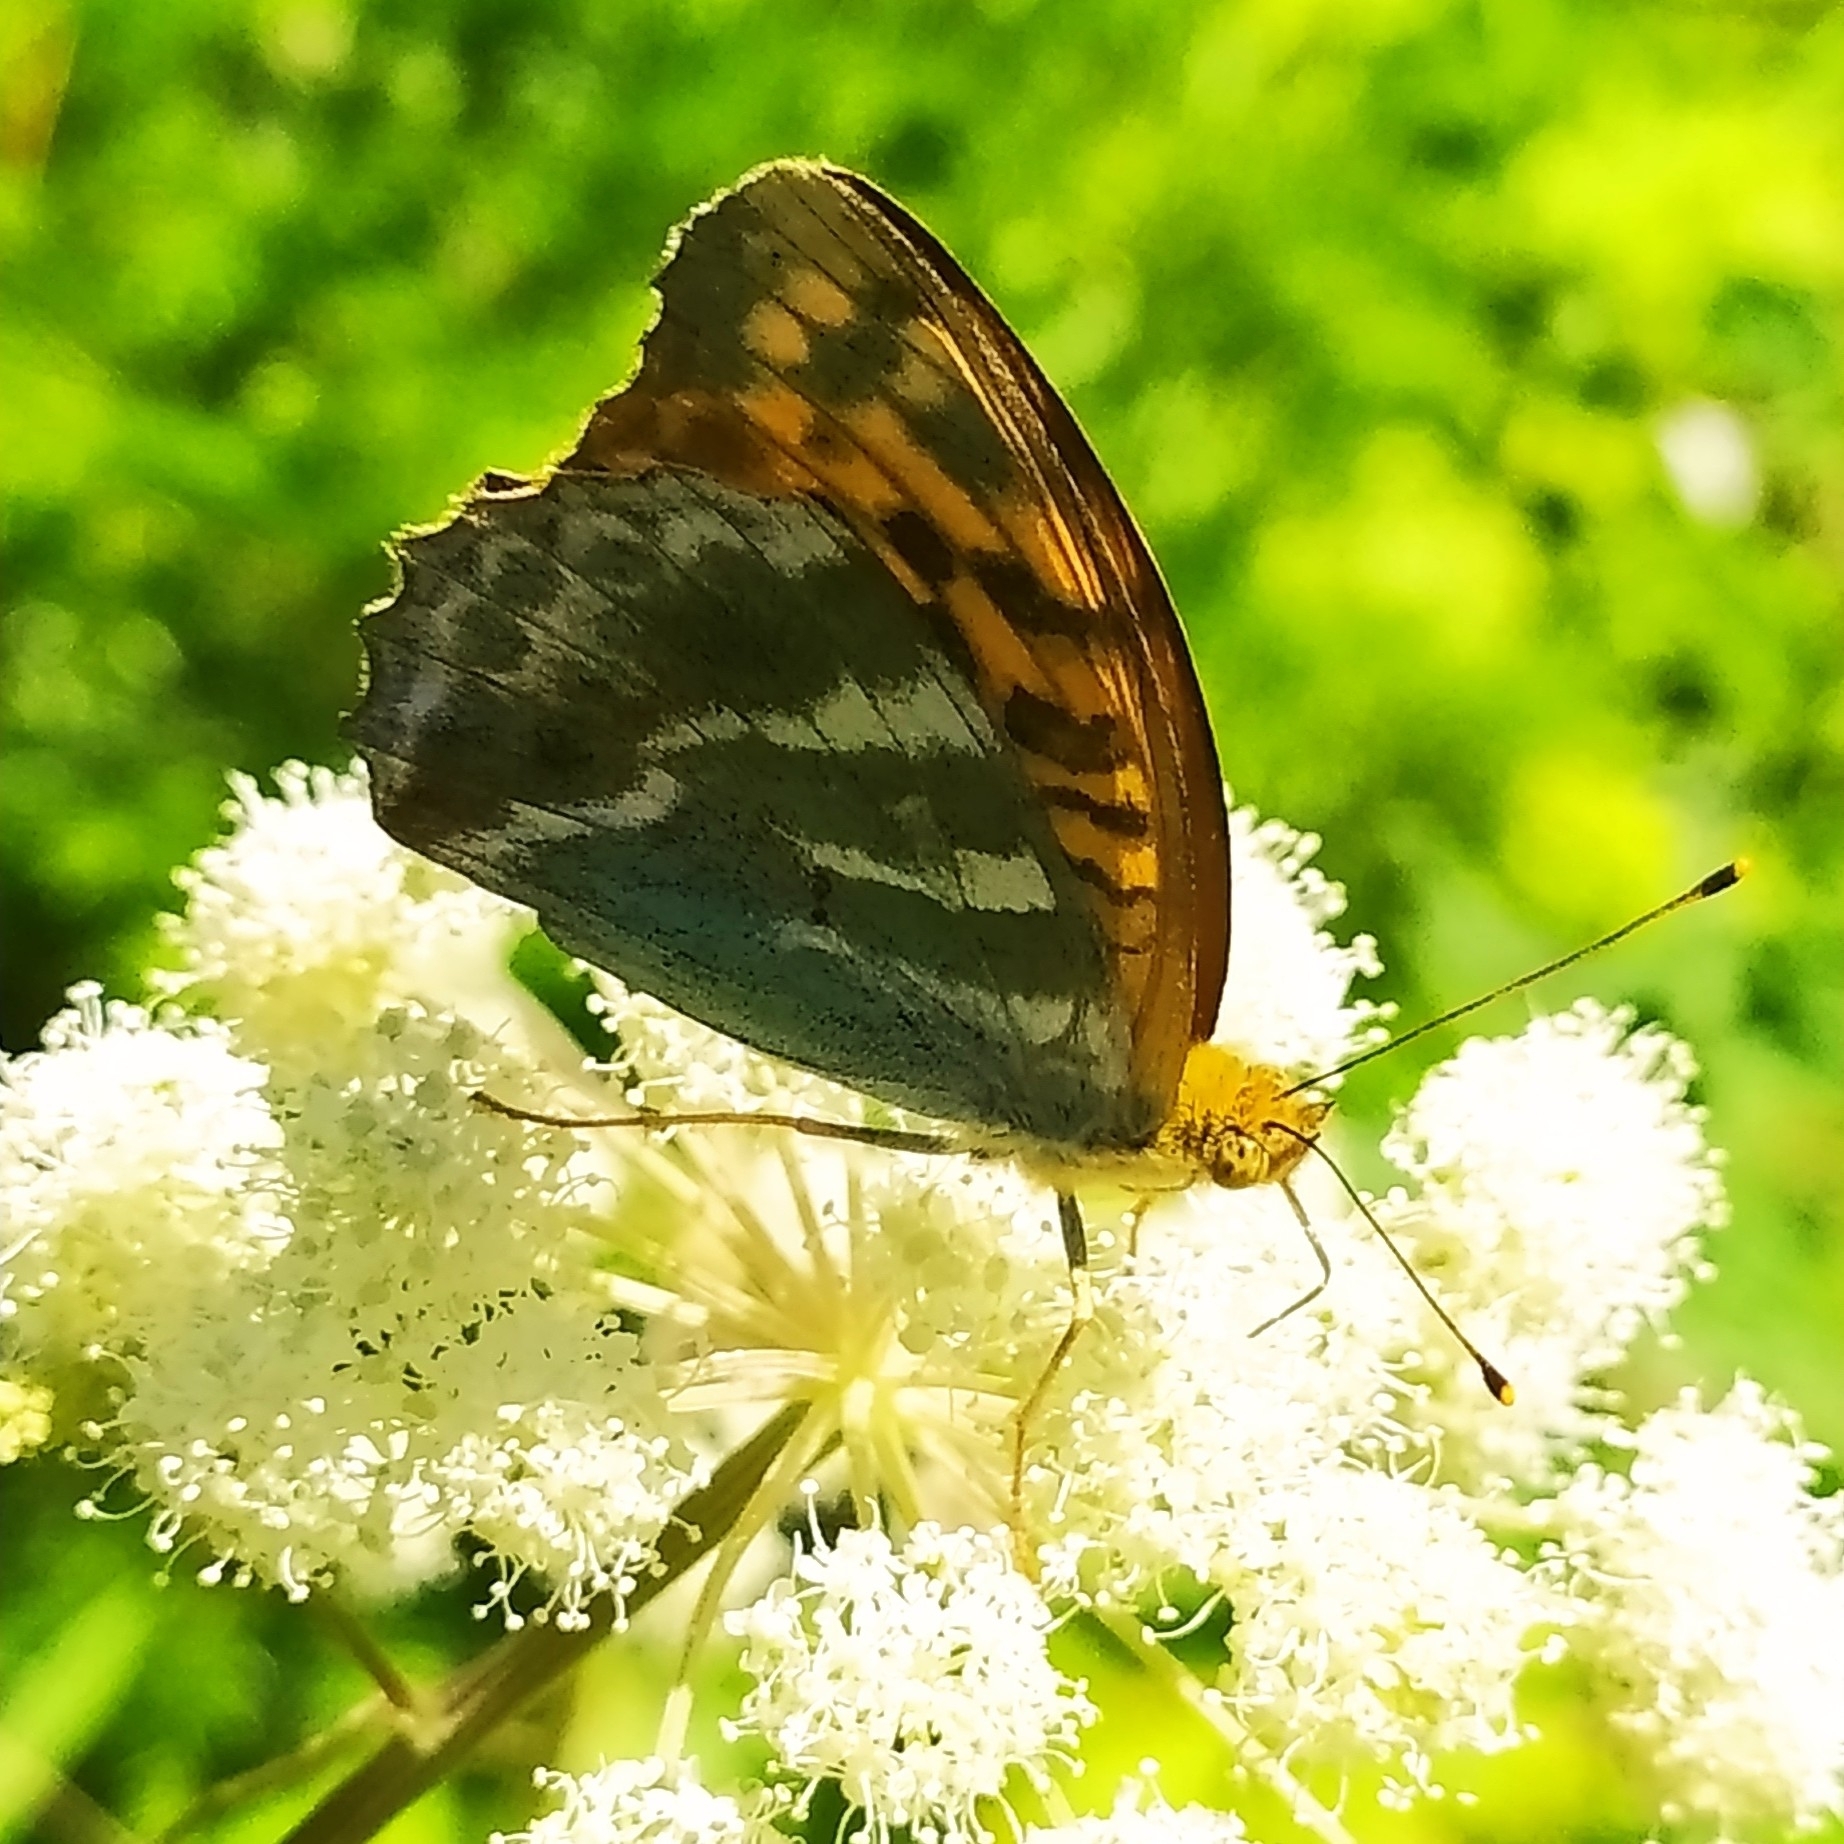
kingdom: Animalia
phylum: Arthropoda
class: Insecta
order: Lepidoptera
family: Nymphalidae
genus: Argynnis
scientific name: Argynnis paphia
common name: Silver-washed fritillary
